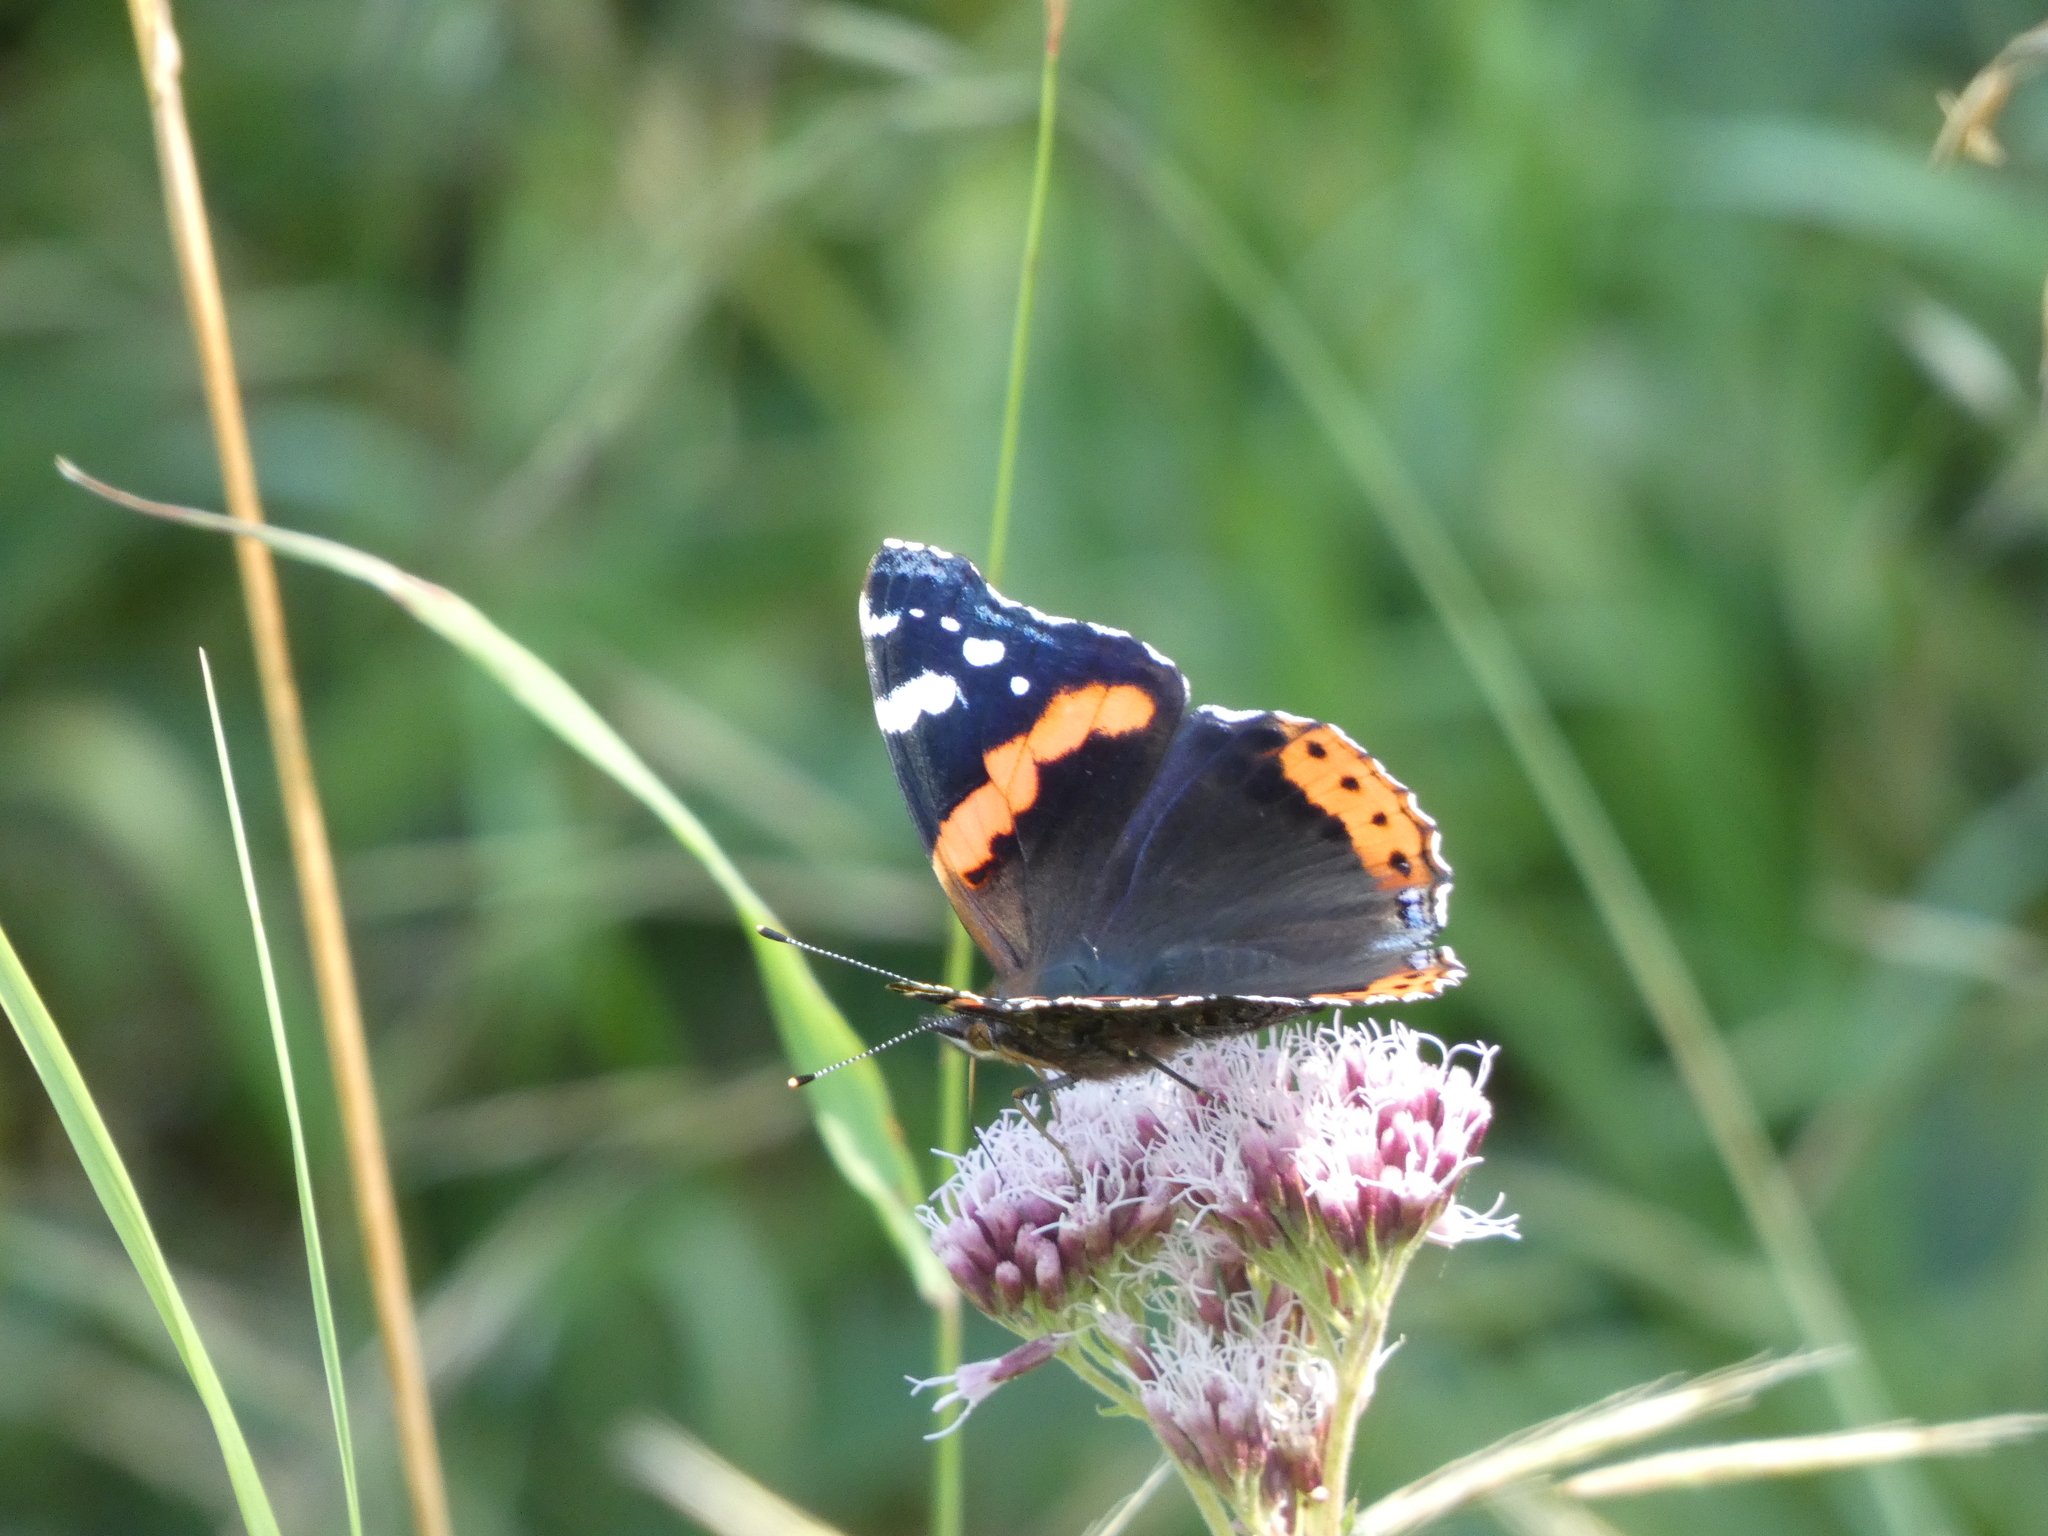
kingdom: Animalia
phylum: Arthropoda
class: Insecta
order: Lepidoptera
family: Nymphalidae
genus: Vanessa
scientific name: Vanessa atalanta
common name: Red admiral
